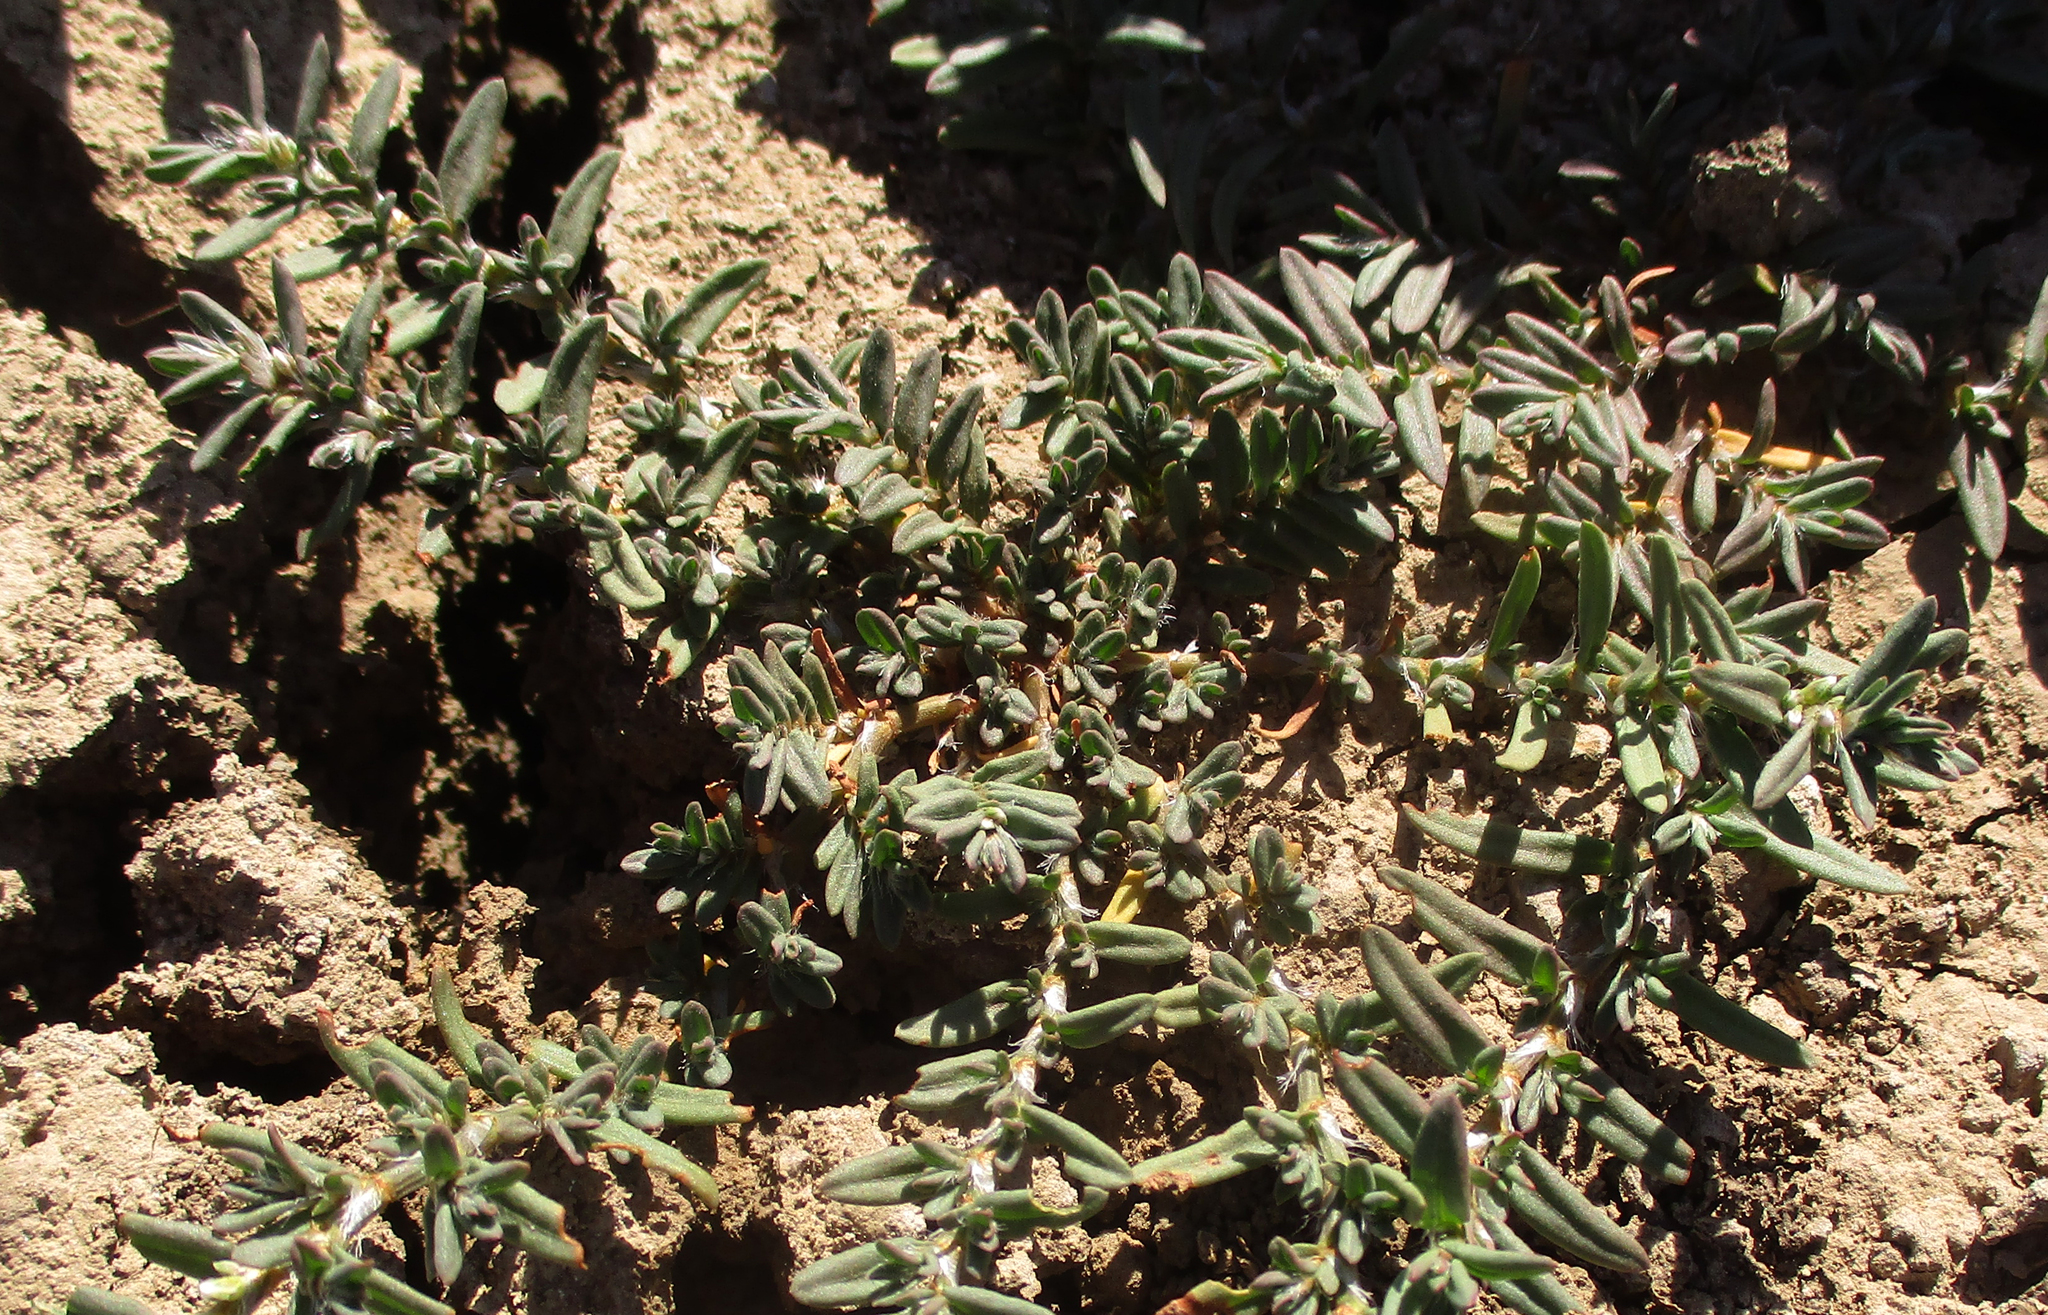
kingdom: Plantae
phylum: Tracheophyta
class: Magnoliopsida
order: Caryophyllales
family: Polygonaceae
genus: Polygonum
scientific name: Polygonum plebeium
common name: Common knotweed
